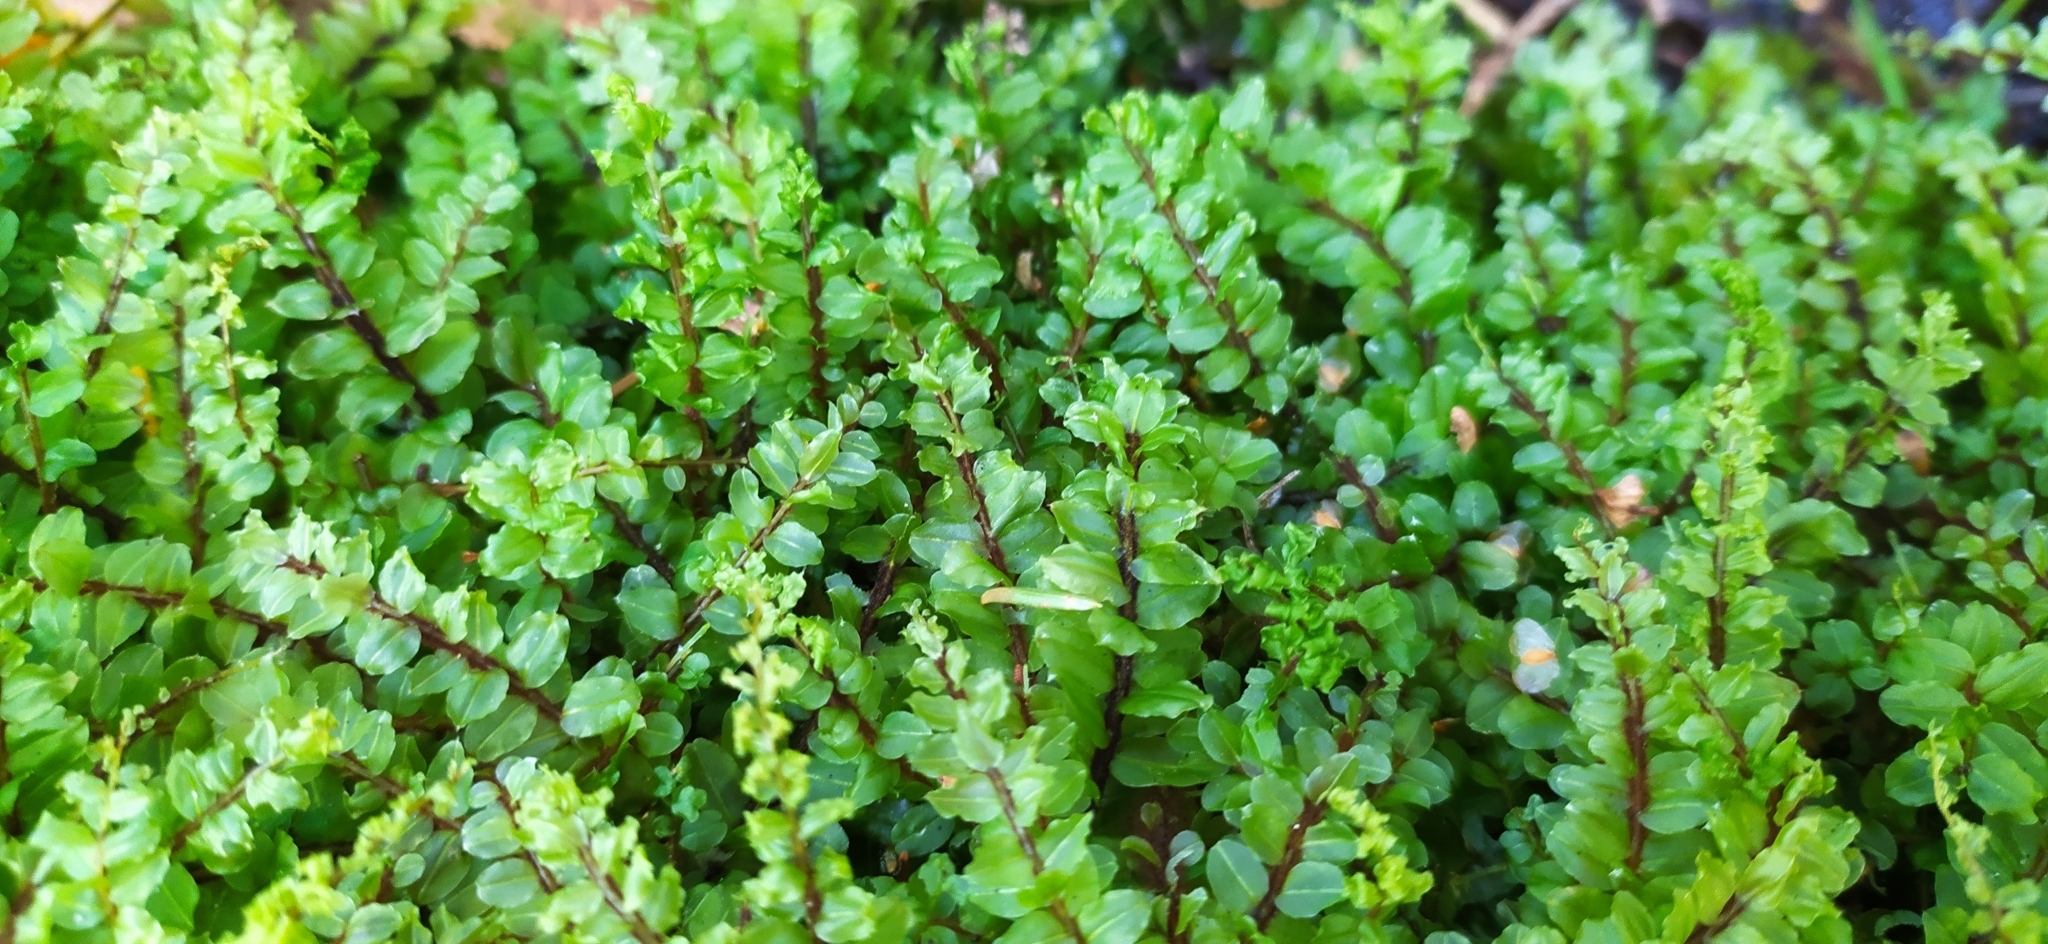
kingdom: Plantae
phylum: Bryophyta
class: Bryopsida
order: Bryales
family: Mniaceae
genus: Pseudobryum
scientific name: Pseudobryum cinclidioides
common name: River thyme moss
